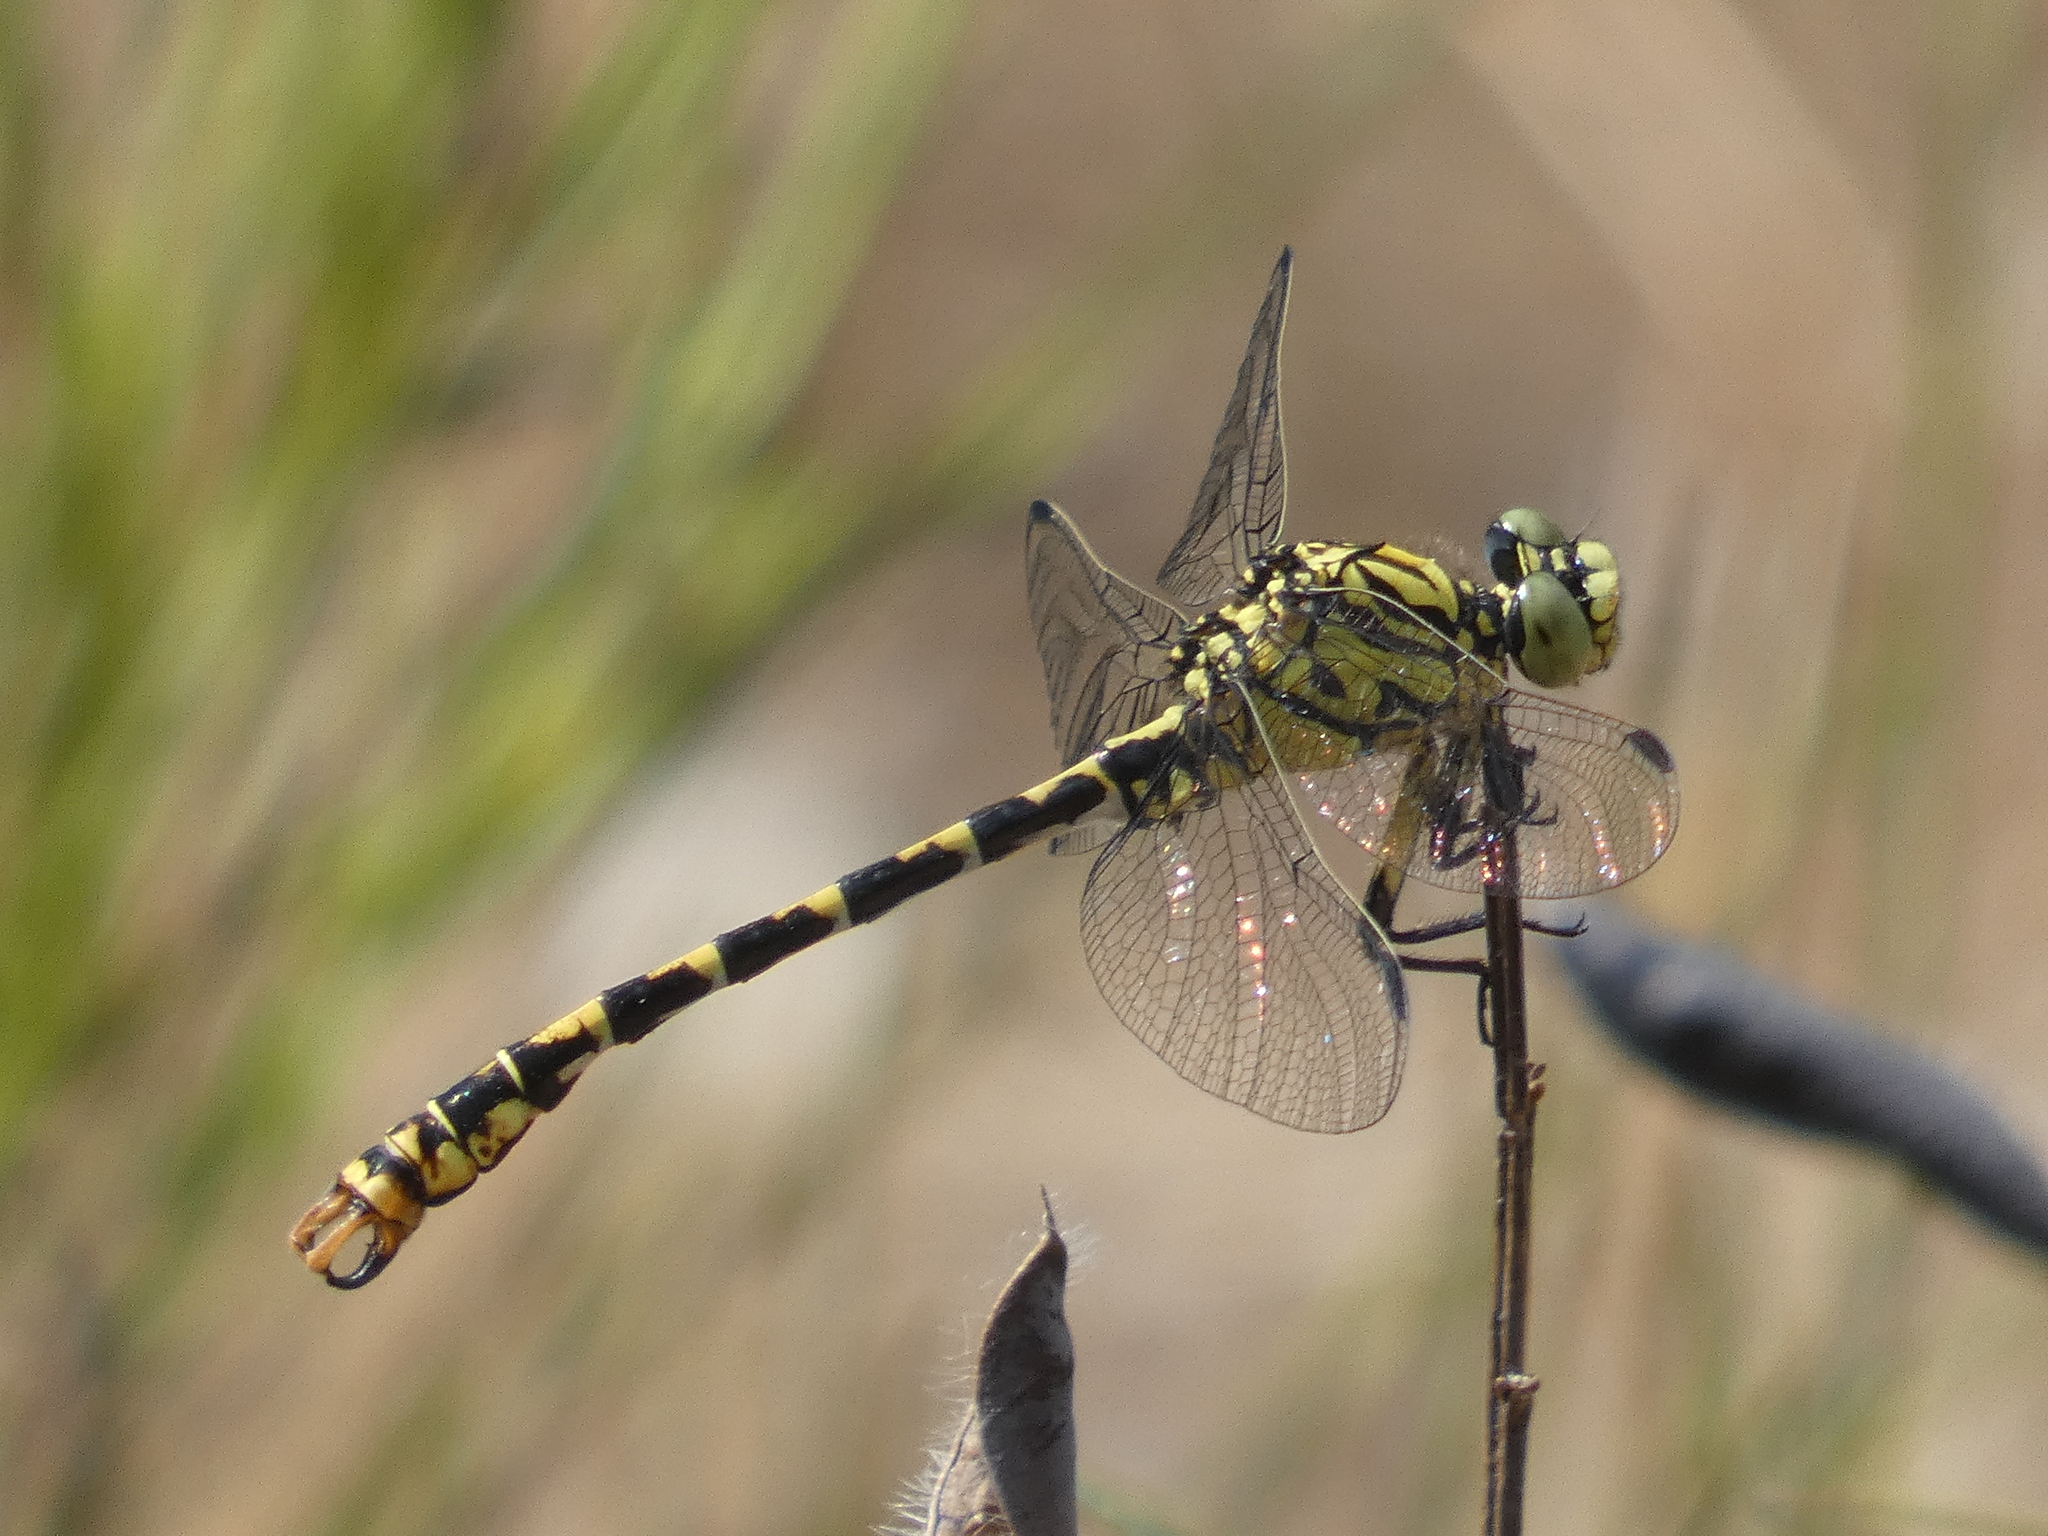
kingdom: Animalia
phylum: Arthropoda
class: Insecta
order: Odonata
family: Gomphidae
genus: Onychogomphus
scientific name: Onychogomphus forcipatus
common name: Small pincertail
